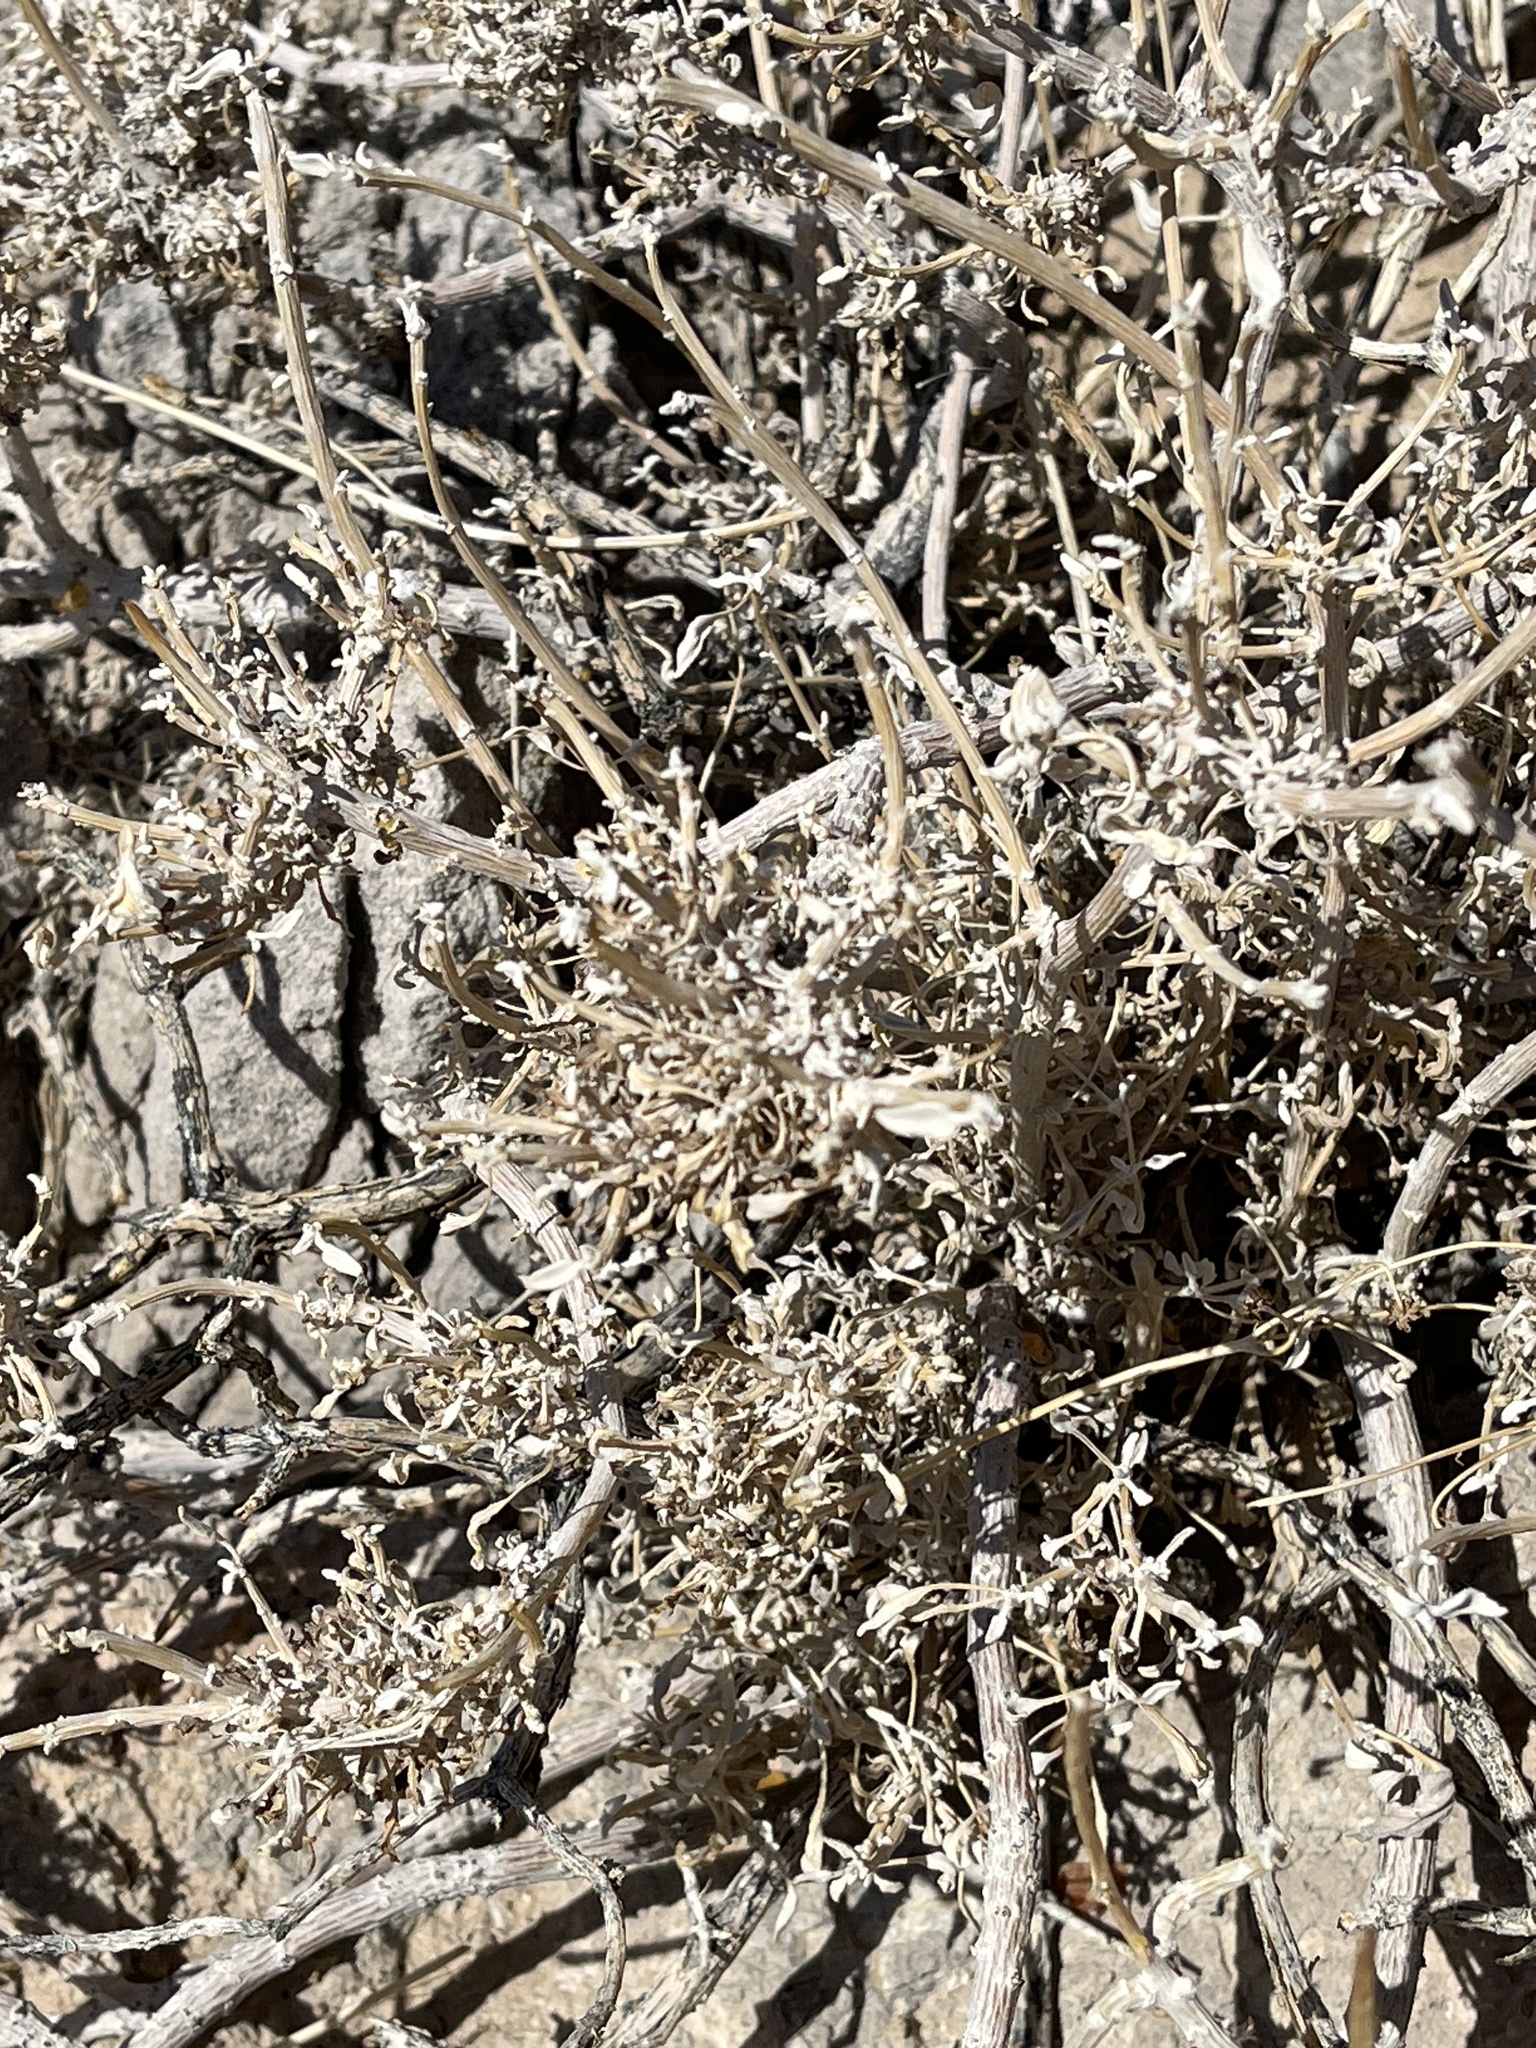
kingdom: Plantae
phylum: Tracheophyta
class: Magnoliopsida
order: Asterales
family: Asteraceae
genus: Ambrosia
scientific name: Ambrosia dumosa
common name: Bur-sage
